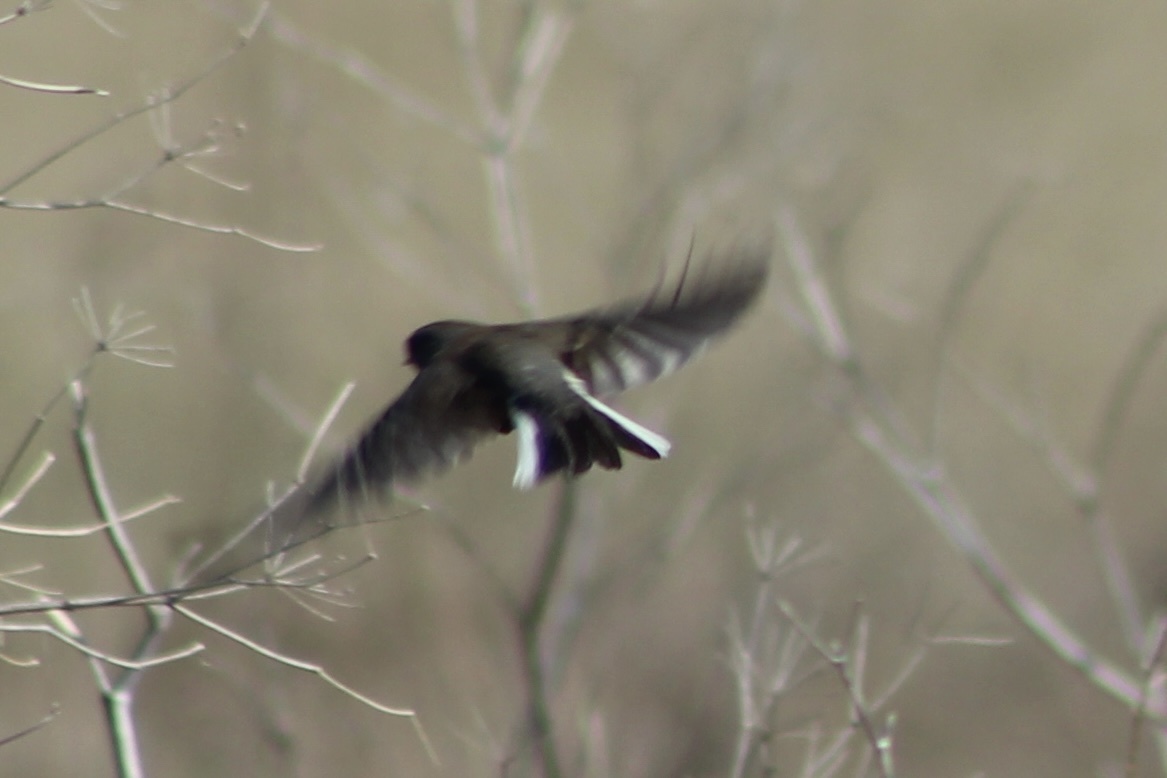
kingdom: Animalia
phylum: Chordata
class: Aves
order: Passeriformes
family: Passerellidae
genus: Junco
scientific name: Junco hyemalis
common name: Dark-eyed junco
